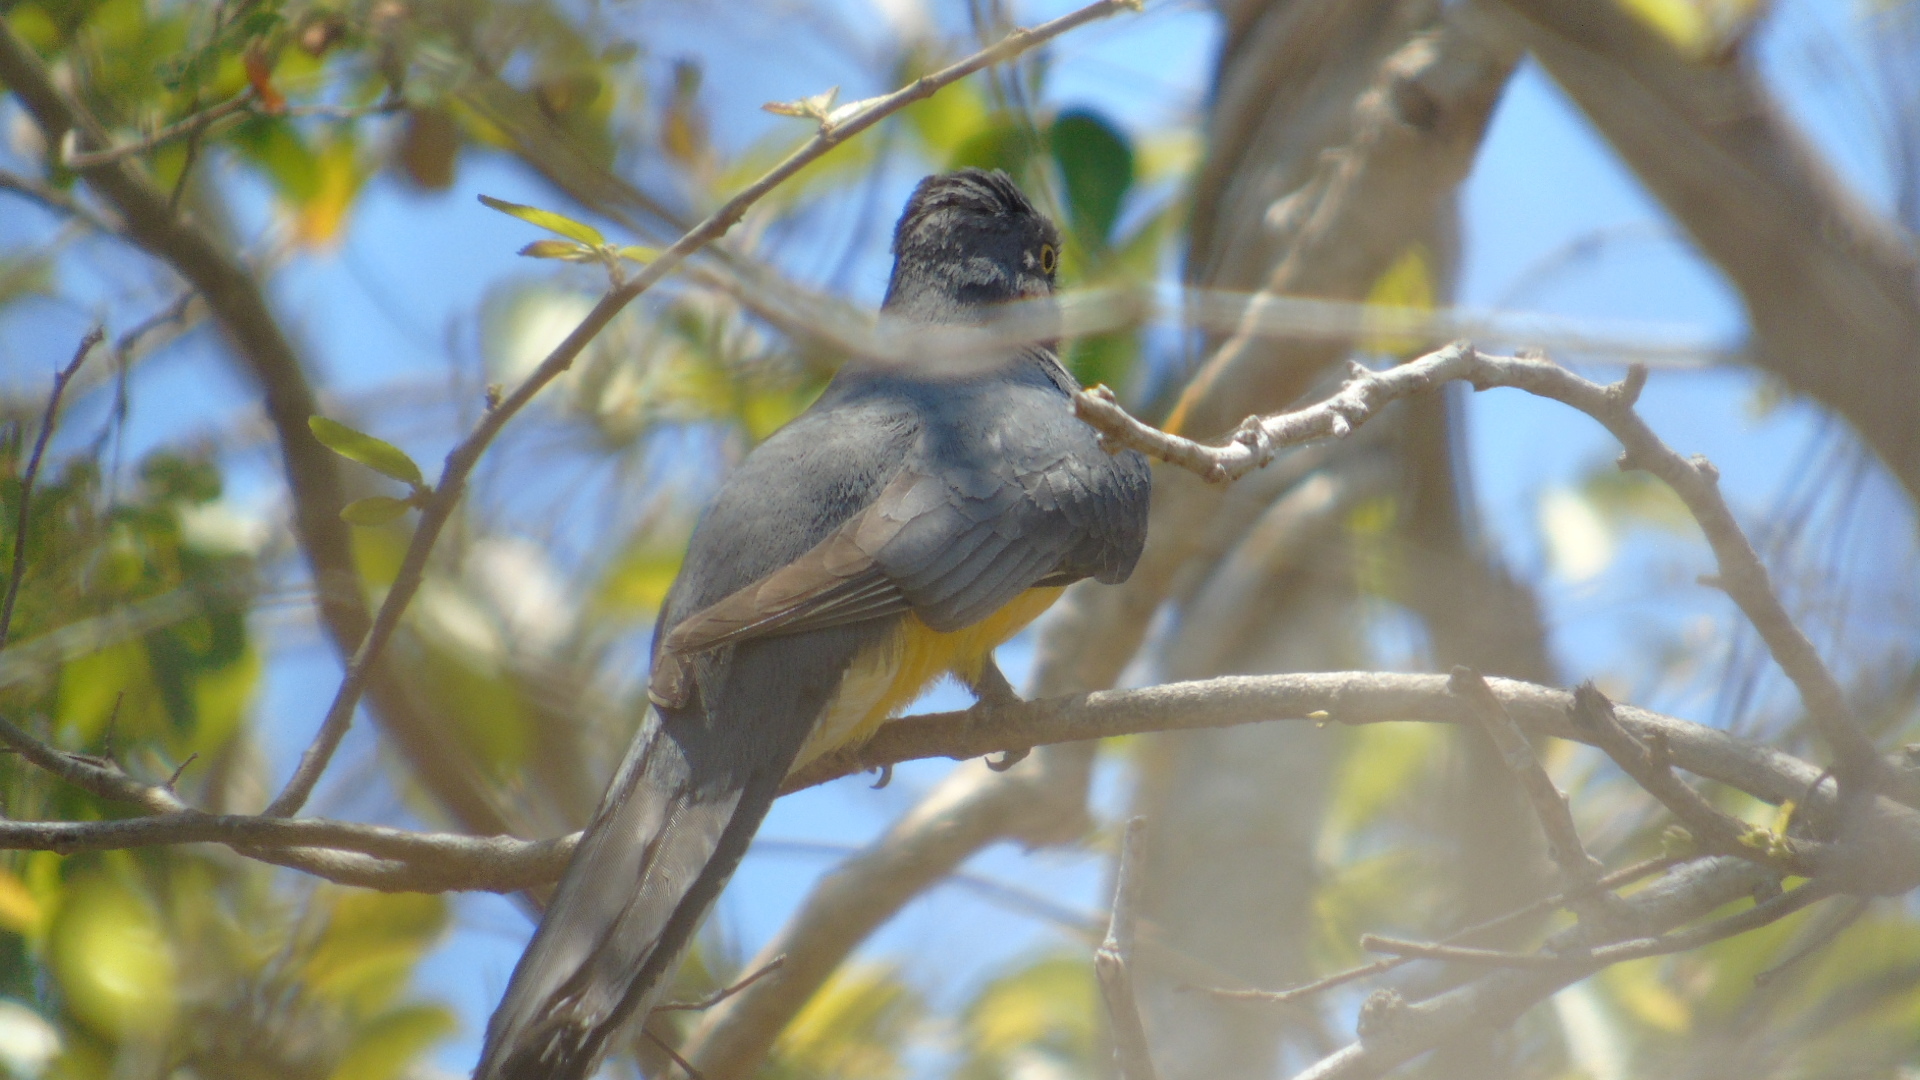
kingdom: Animalia
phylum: Chordata
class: Aves
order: Trogoniformes
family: Trogonidae
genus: Trogon
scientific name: Trogon citreolus
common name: Citreoline trogon
